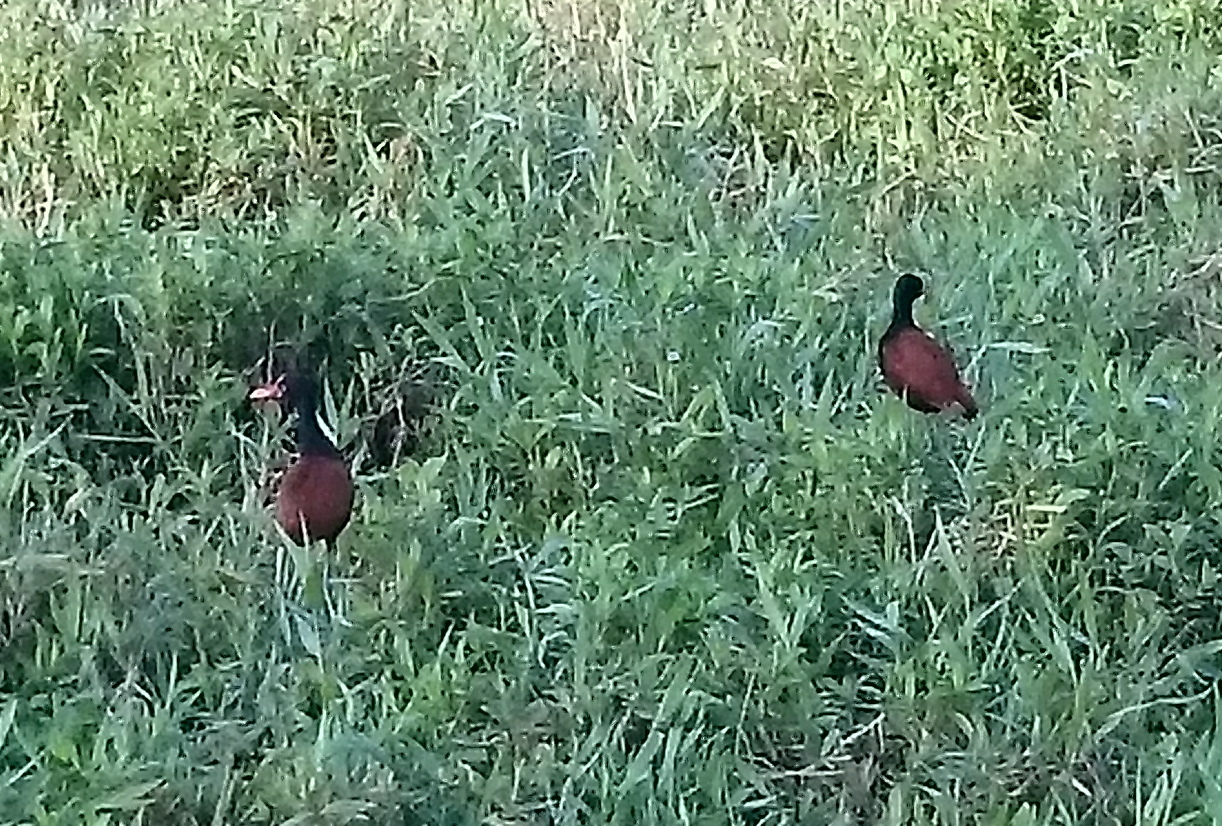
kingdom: Animalia
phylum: Chordata
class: Aves
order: Charadriiformes
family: Jacanidae
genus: Jacana
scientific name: Jacana jacana
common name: Wattled jacana
